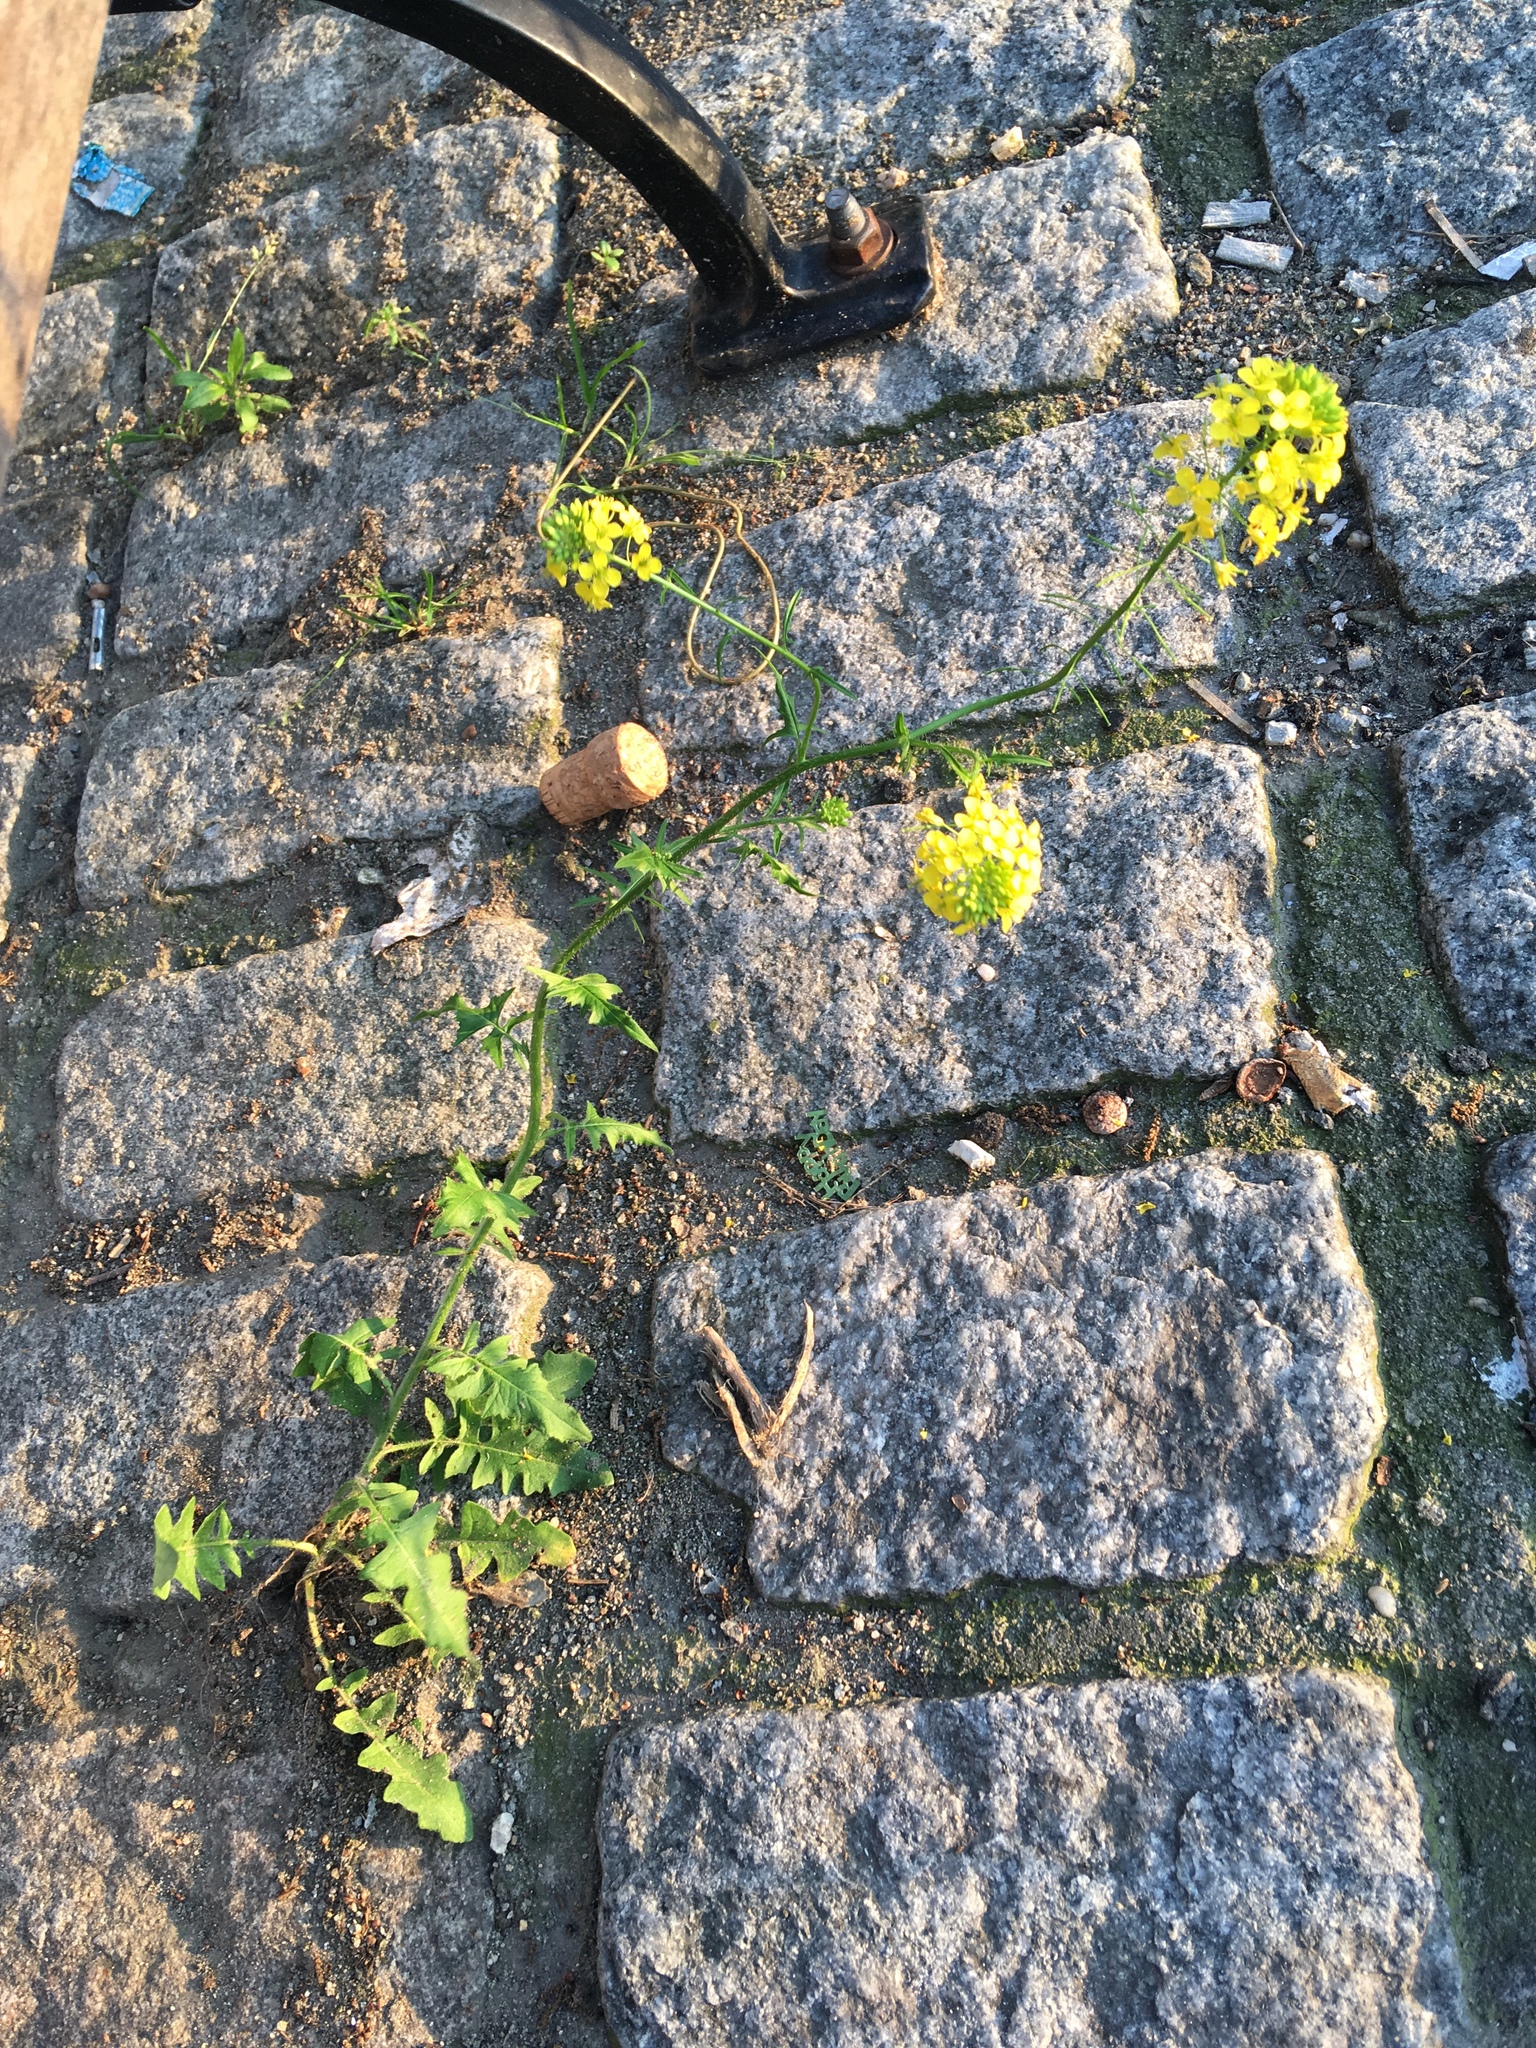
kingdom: Plantae
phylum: Tracheophyta
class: Magnoliopsida
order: Brassicales
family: Brassicaceae
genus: Sisymbrium
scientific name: Sisymbrium loeselii
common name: False london-rocket
